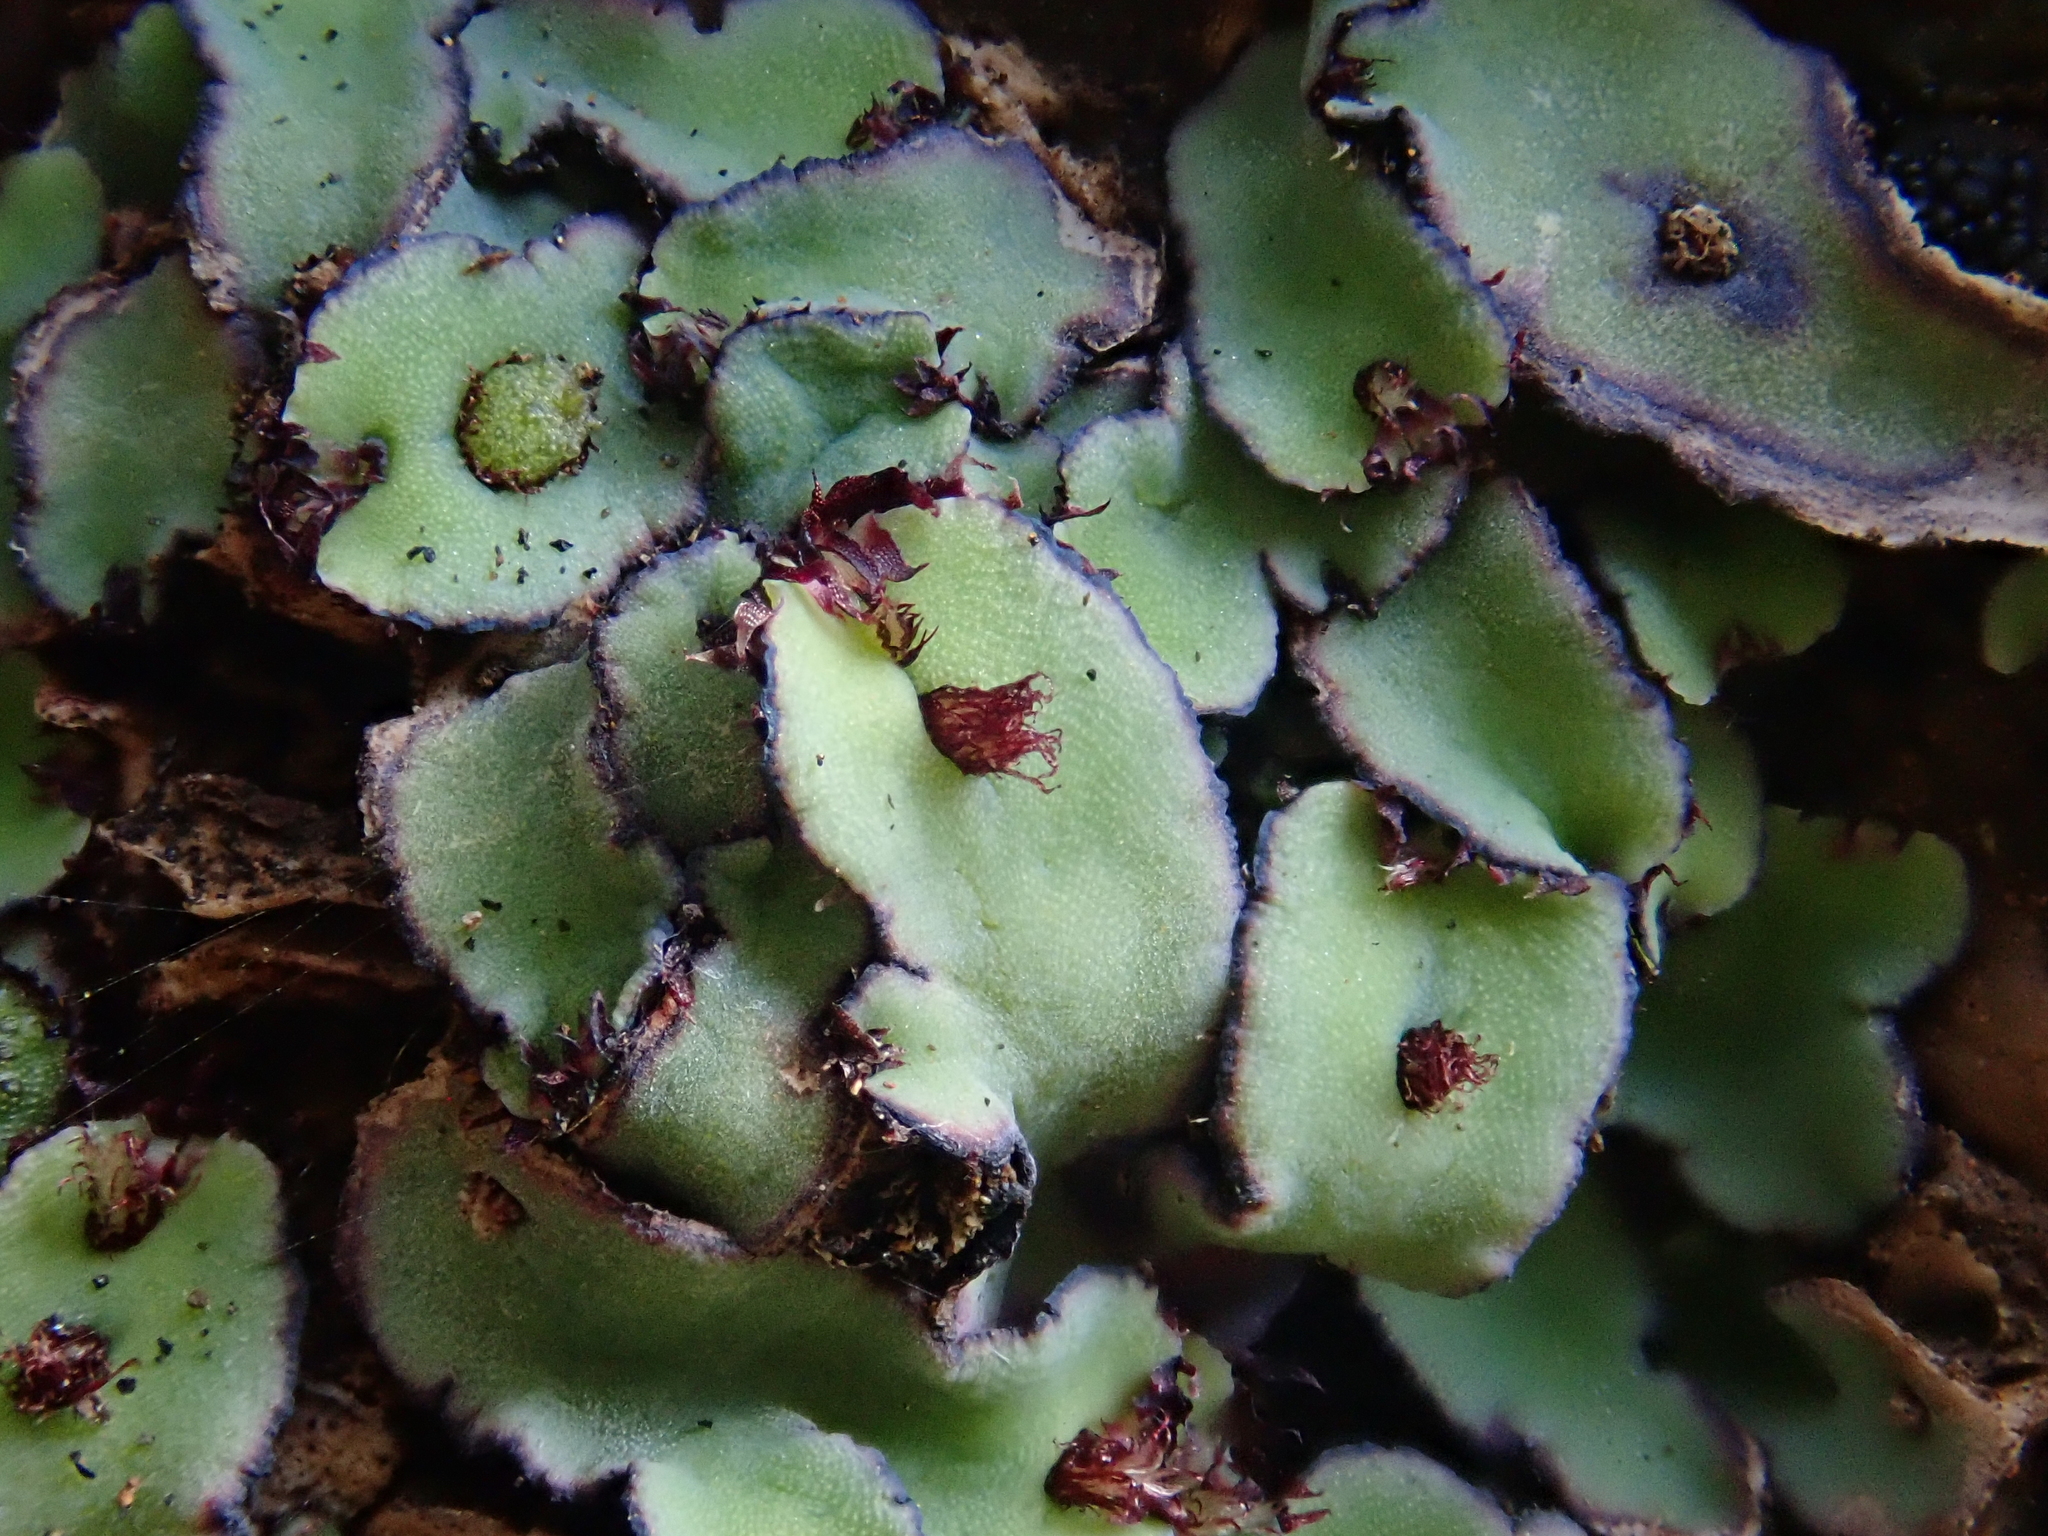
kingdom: Plantae
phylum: Marchantiophyta
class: Marchantiopsida
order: Marchantiales
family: Aytoniaceae
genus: Plagiochasma
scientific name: Plagiochasma rupestre
